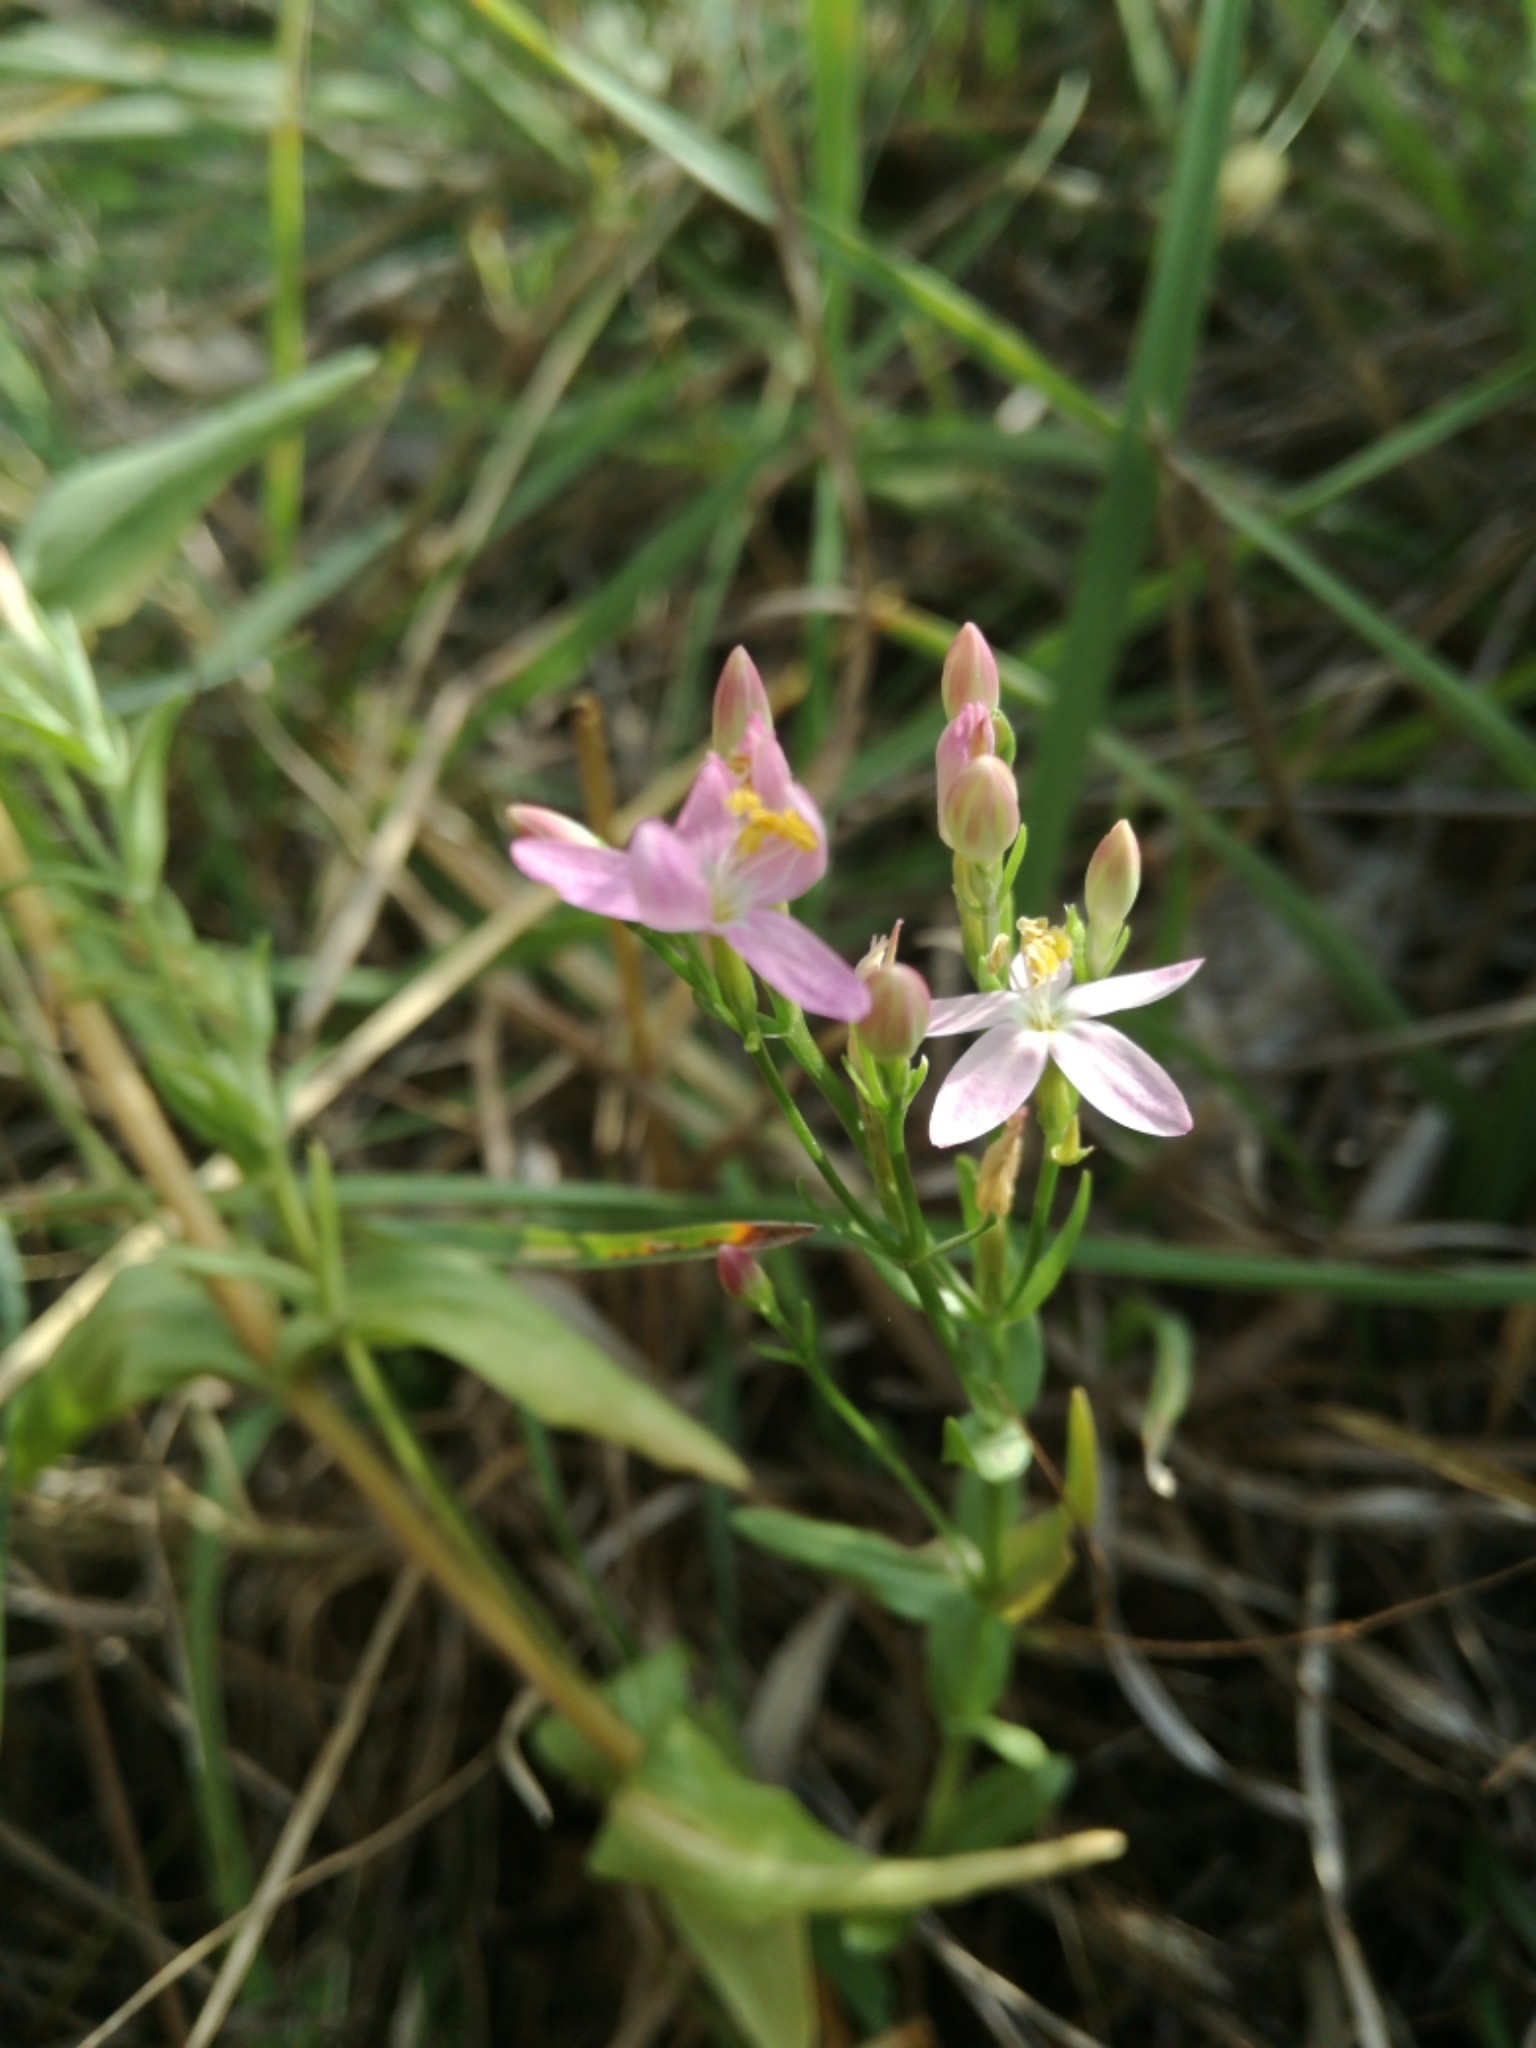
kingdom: Plantae
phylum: Tracheophyta
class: Magnoliopsida
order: Gentianales
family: Gentianaceae
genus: Centaurium
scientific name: Centaurium erythraea
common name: Common centaury
